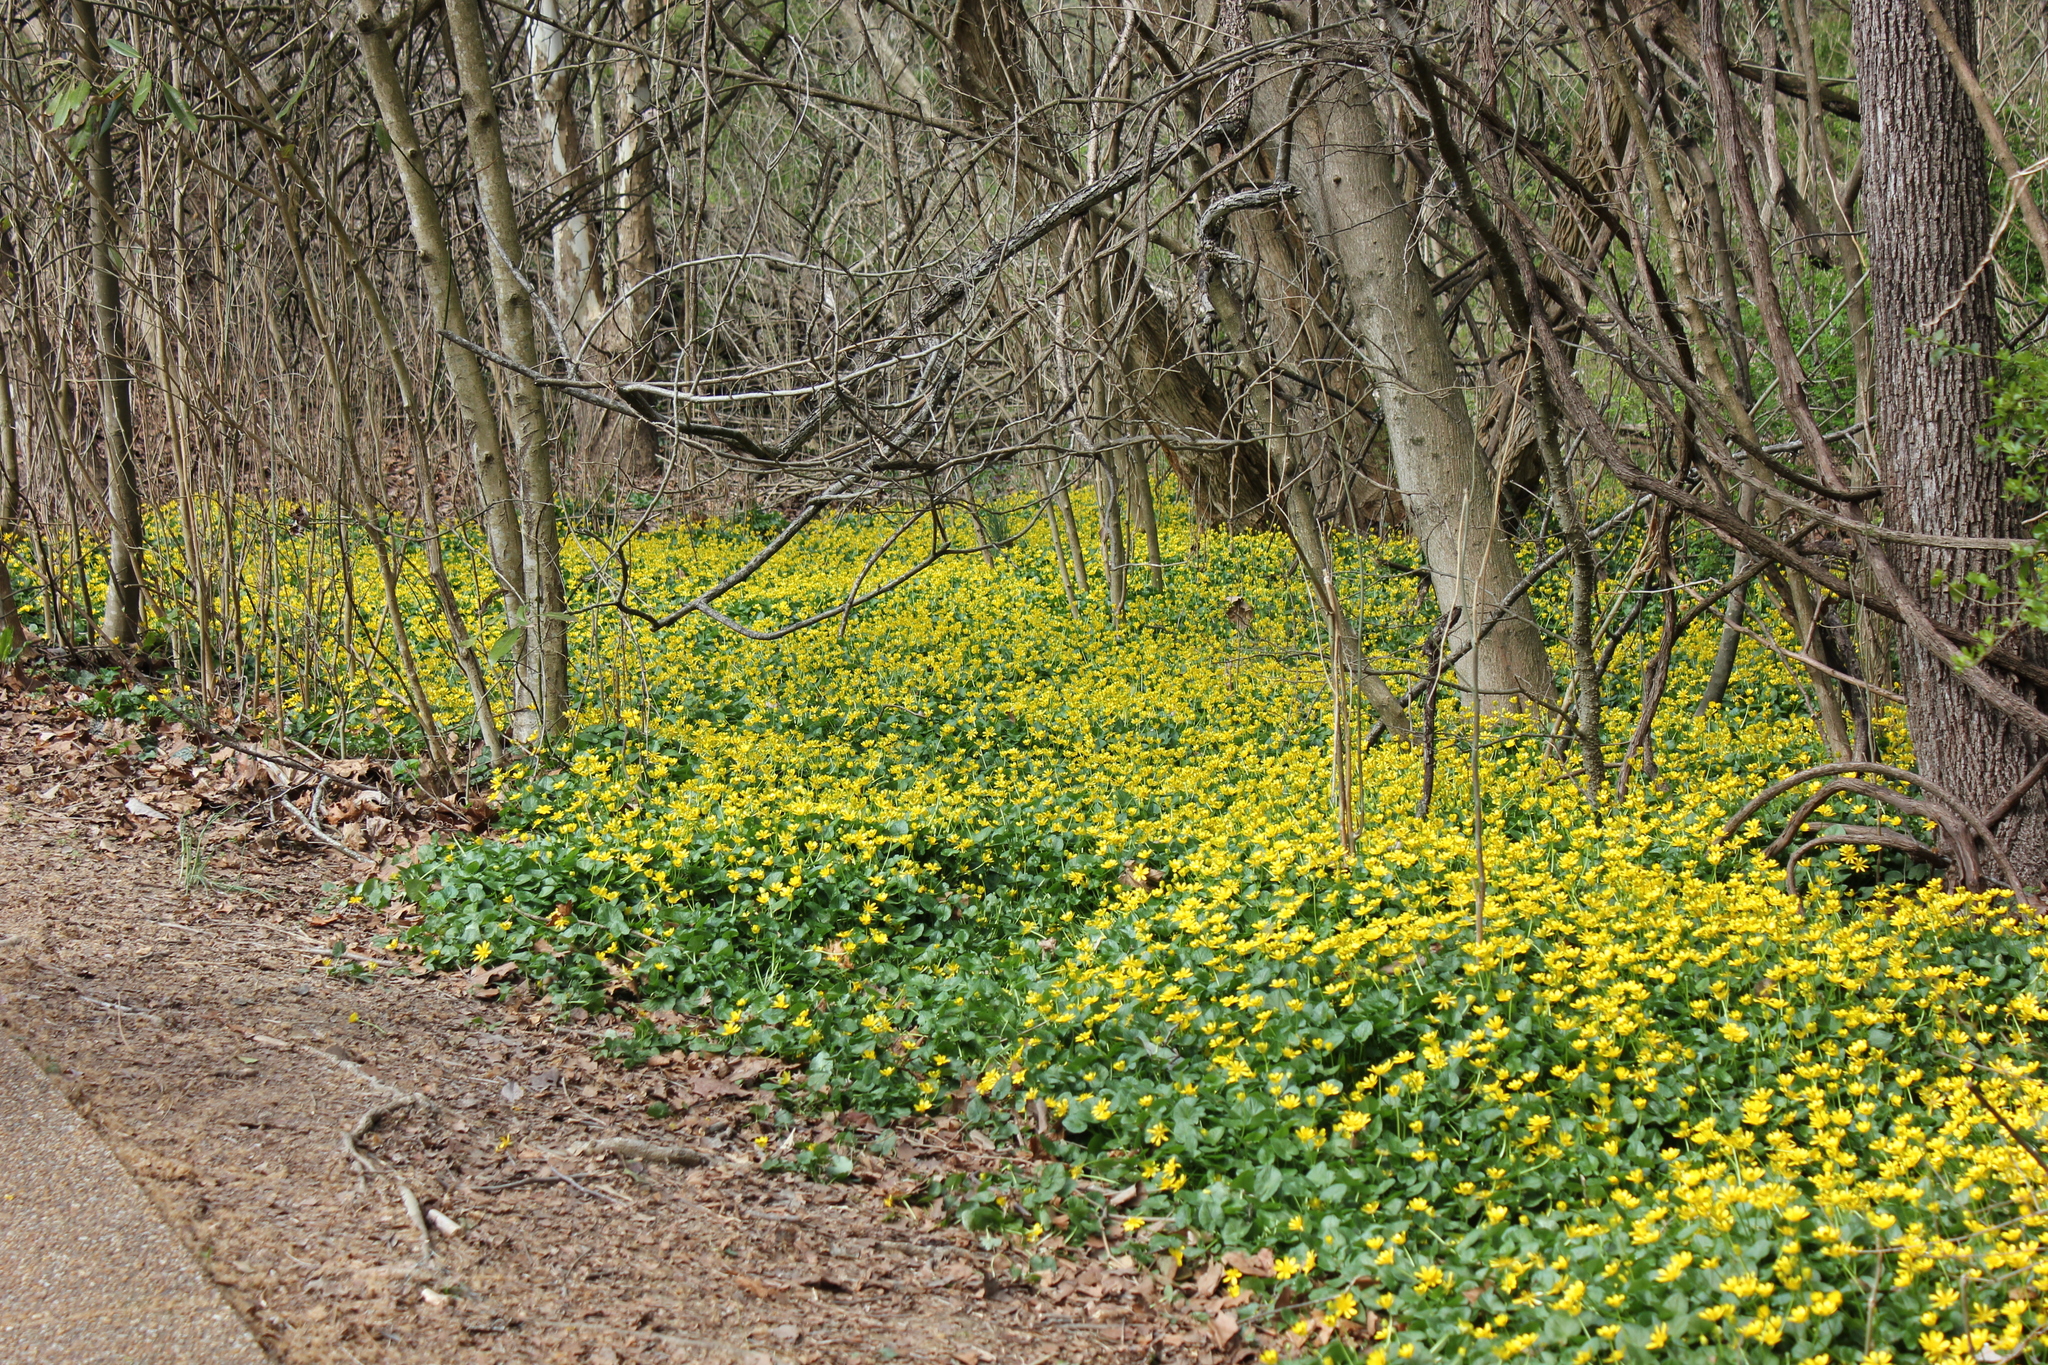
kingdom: Plantae
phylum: Tracheophyta
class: Magnoliopsida
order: Ranunculales
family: Ranunculaceae
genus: Ficaria
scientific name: Ficaria verna
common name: Lesser celandine
